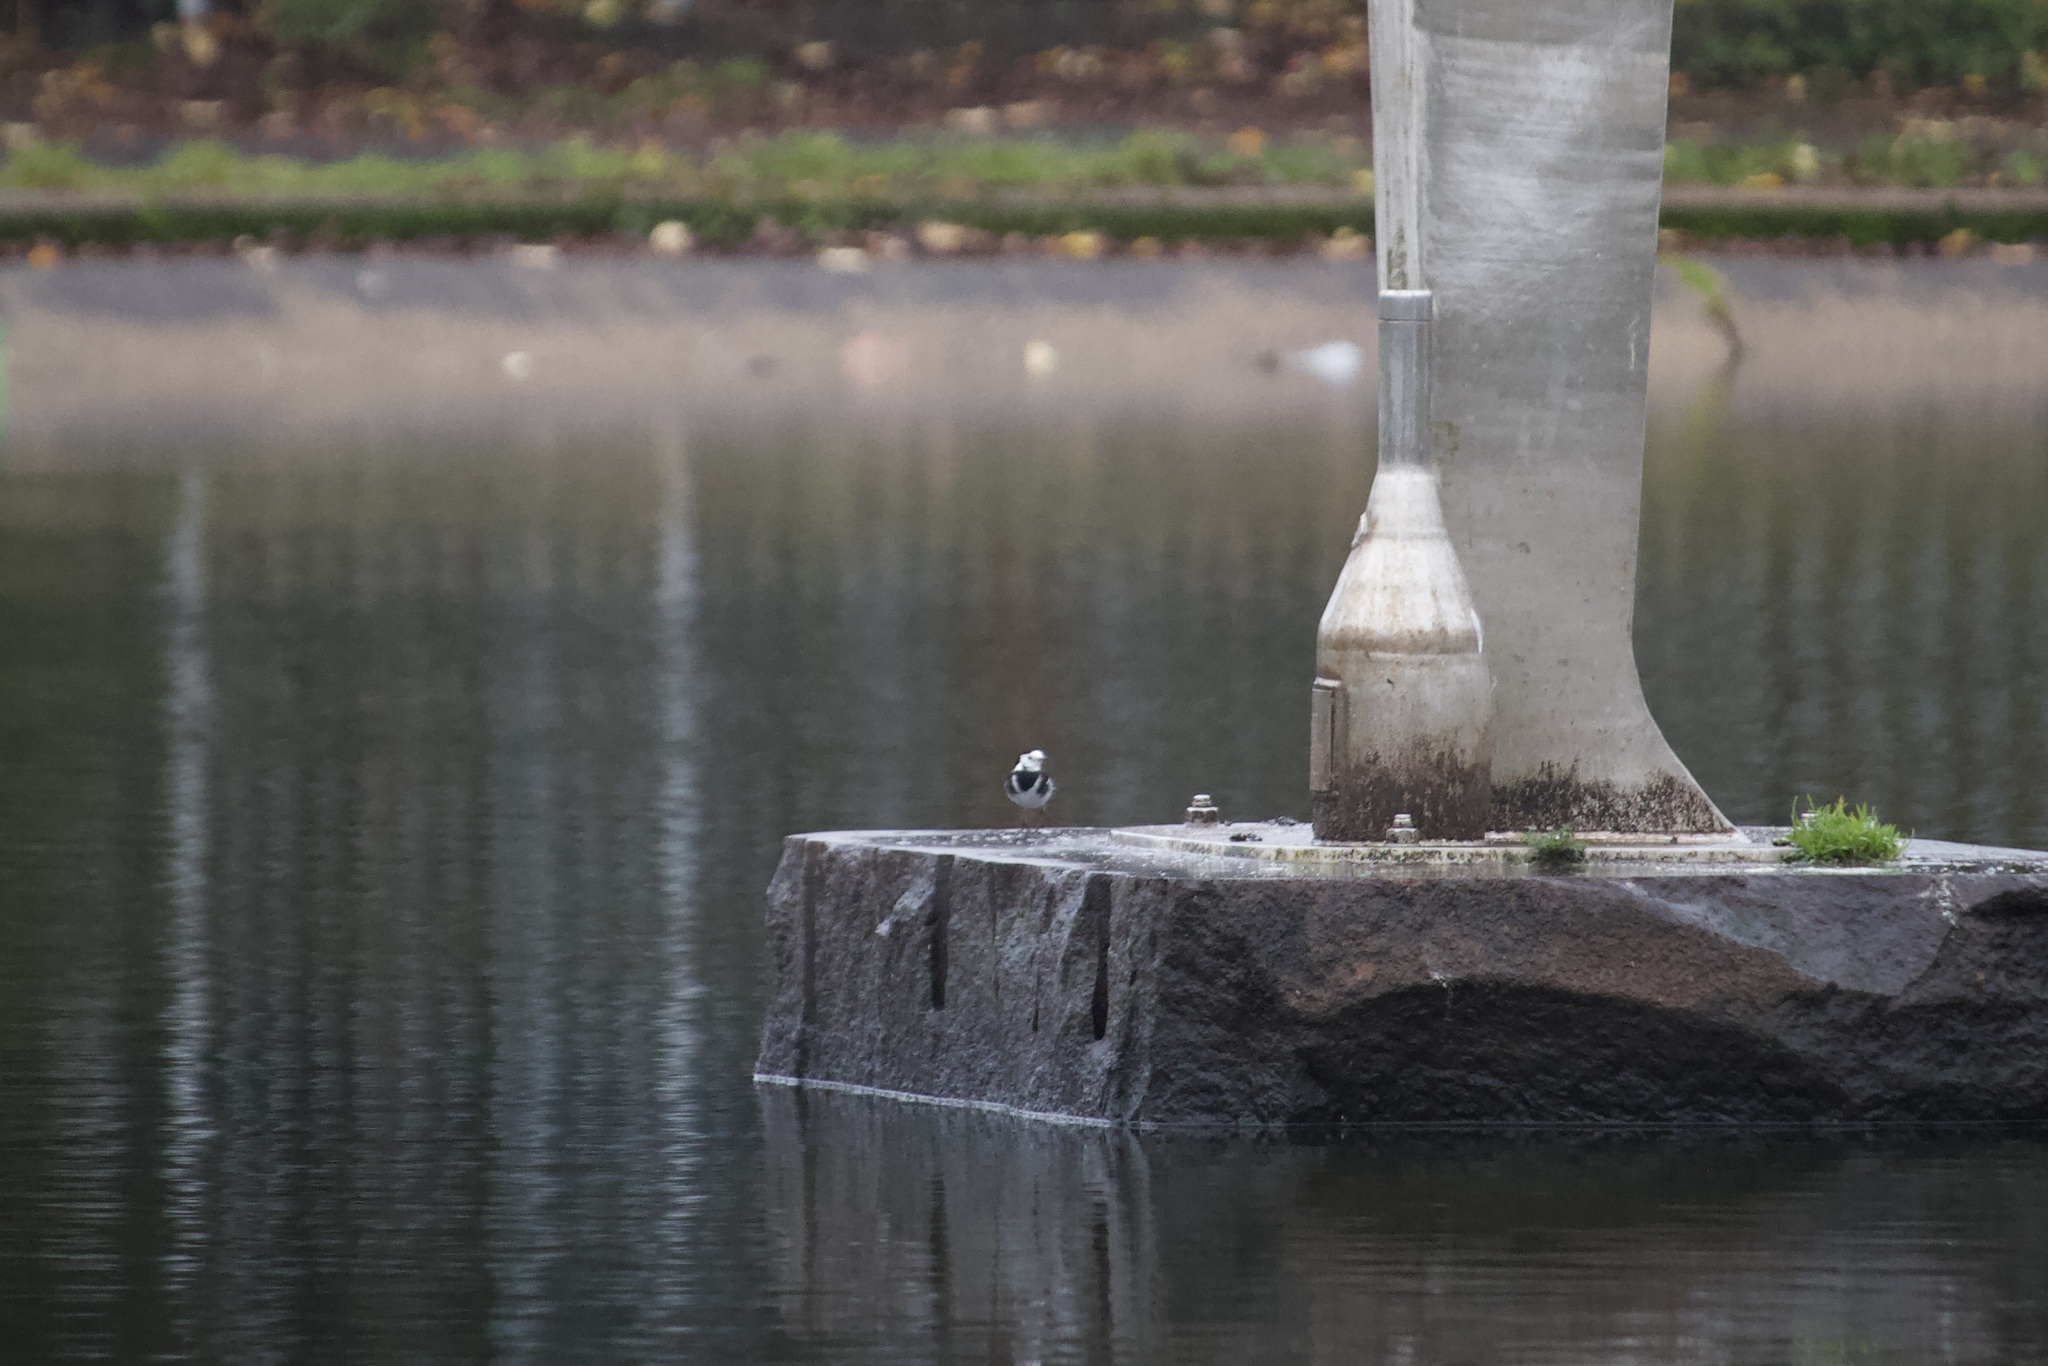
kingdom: Animalia
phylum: Chordata
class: Aves
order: Passeriformes
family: Motacillidae
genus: Motacilla
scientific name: Motacilla alba
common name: White wagtail
